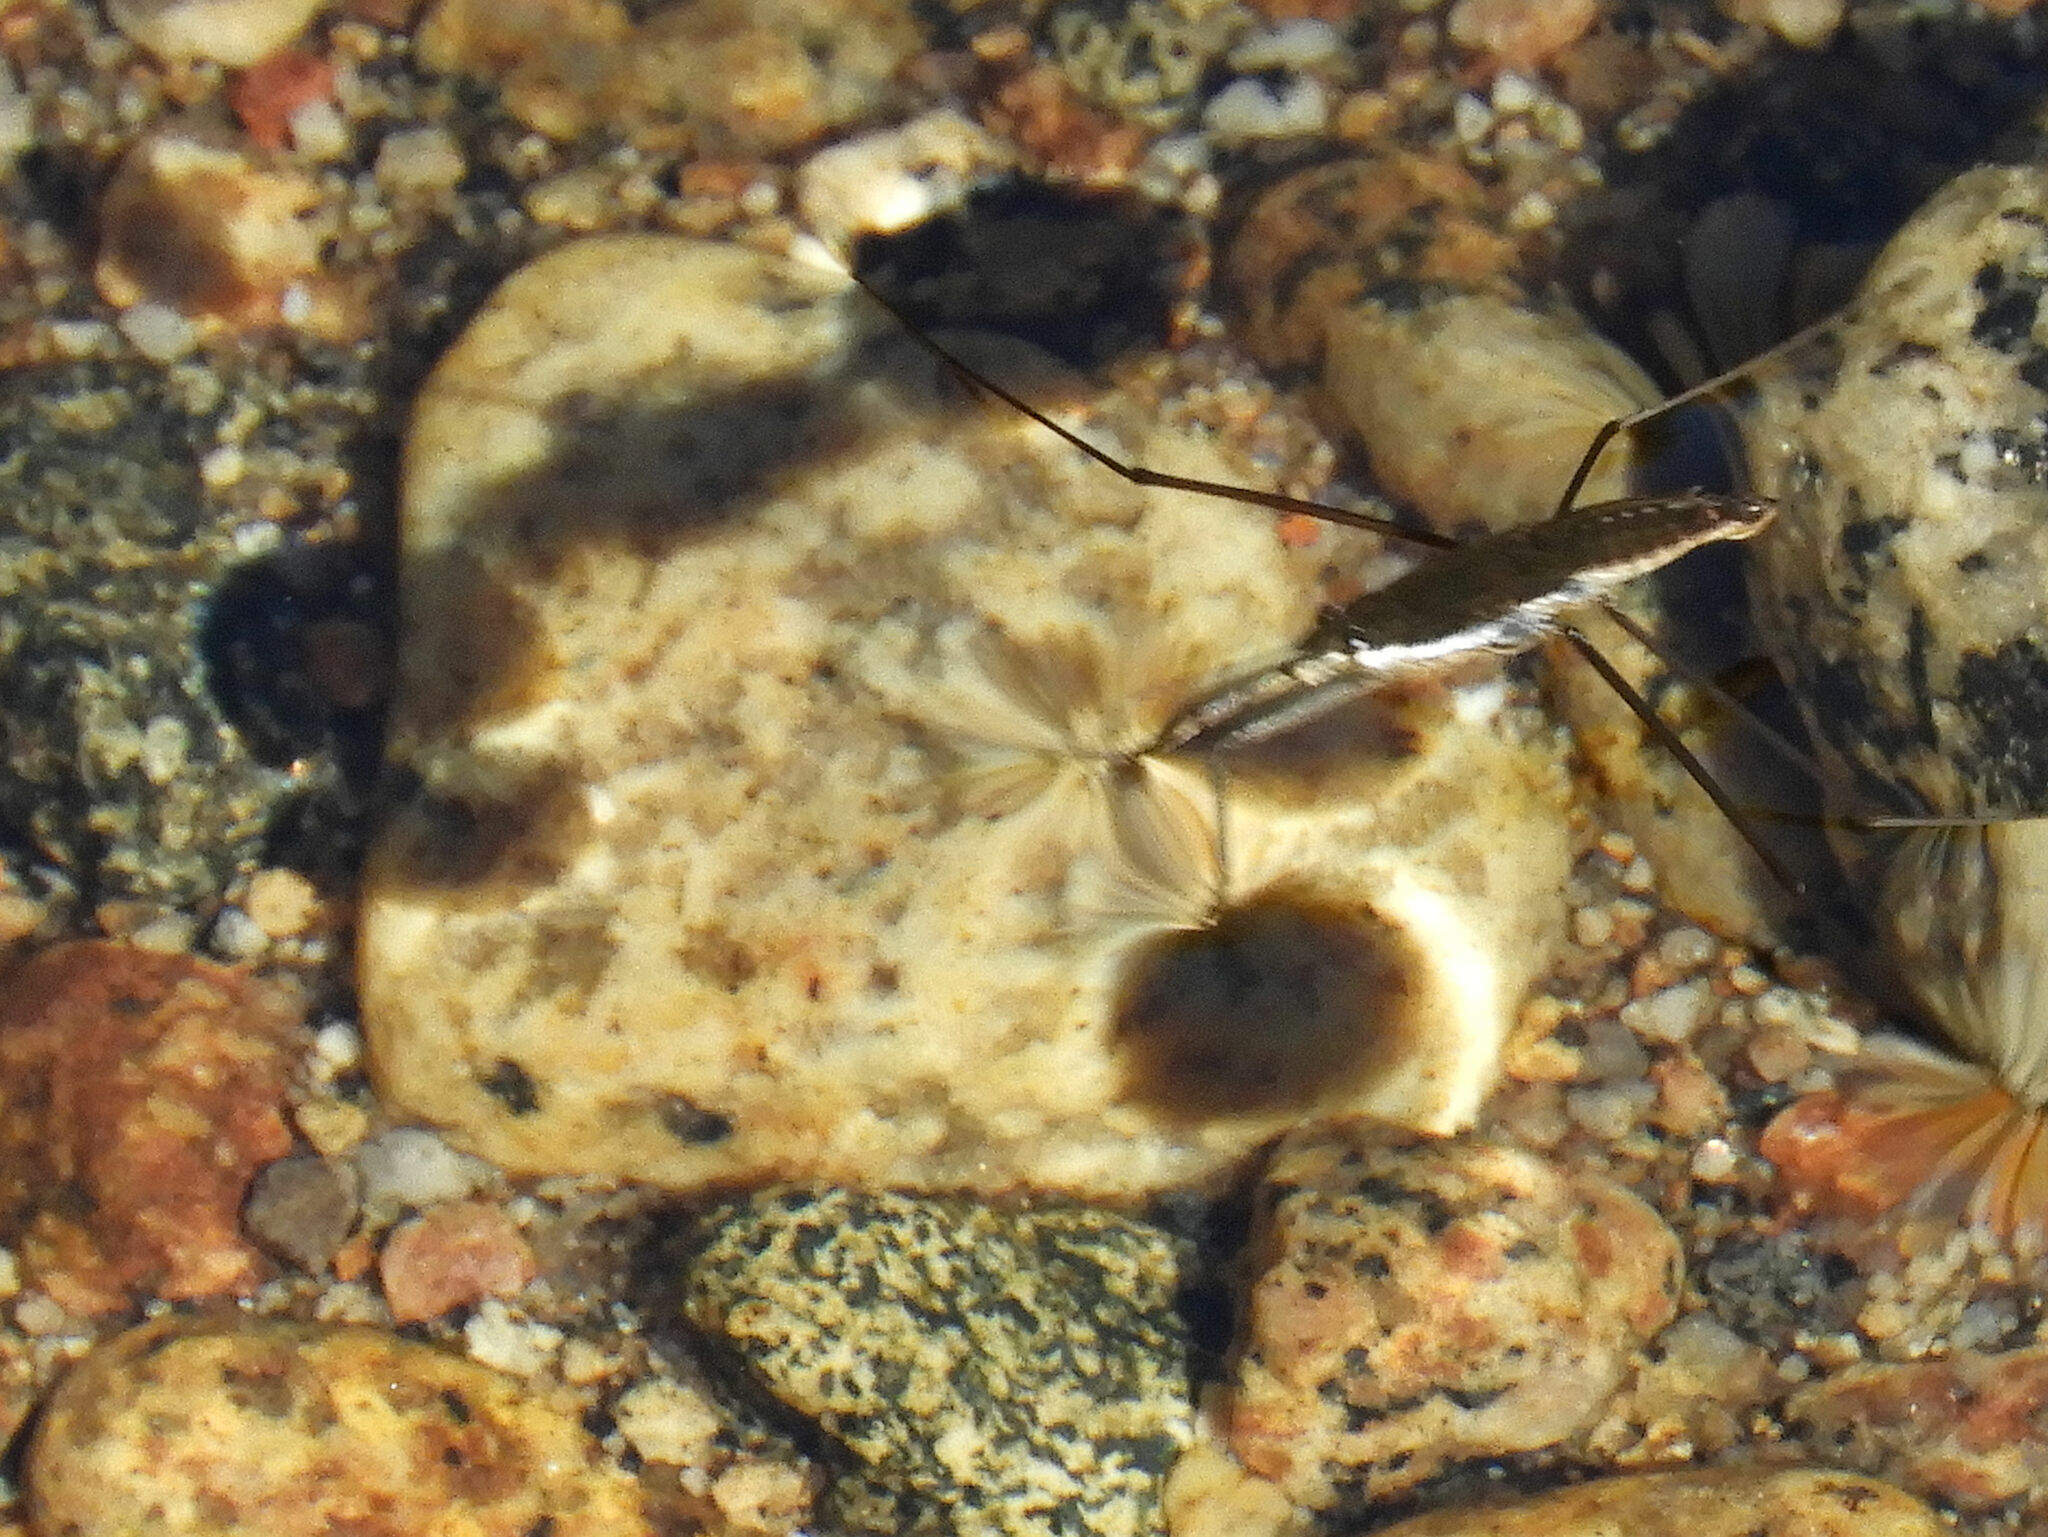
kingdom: Animalia
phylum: Arthropoda
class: Insecta
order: Hemiptera
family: Gerridae
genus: Aquarius
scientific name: Aquarius remigis
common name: Common water strider
